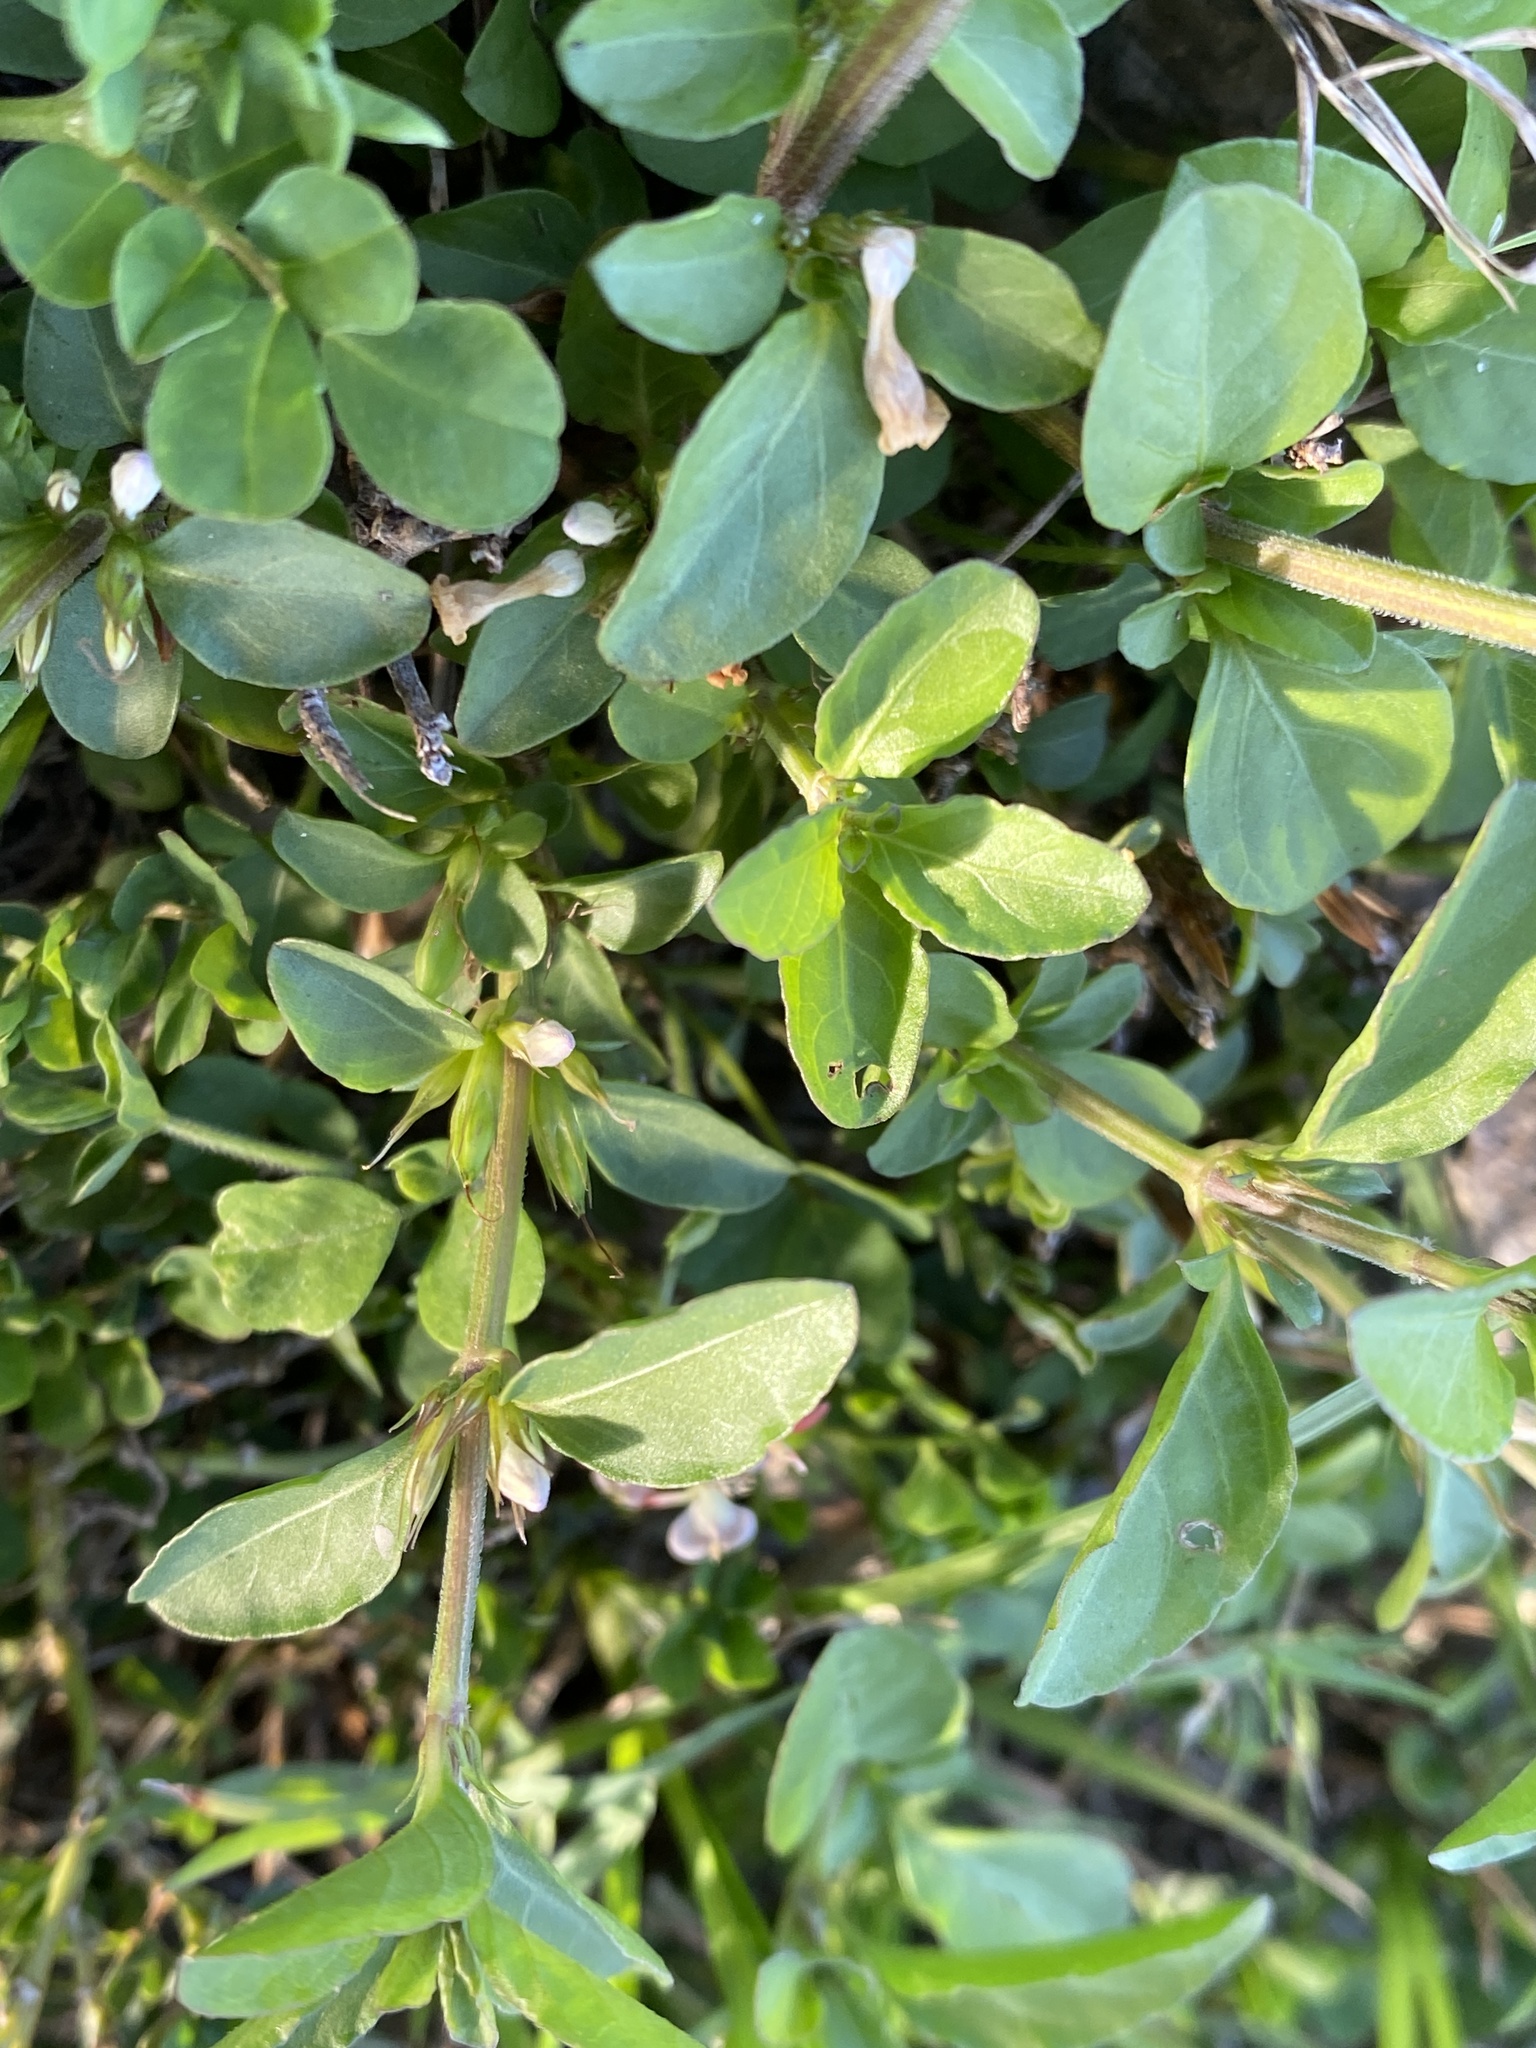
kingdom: Plantae
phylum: Tracheophyta
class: Magnoliopsida
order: Lamiales
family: Acanthaceae
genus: Hygrophila
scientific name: Hygrophila erecta
